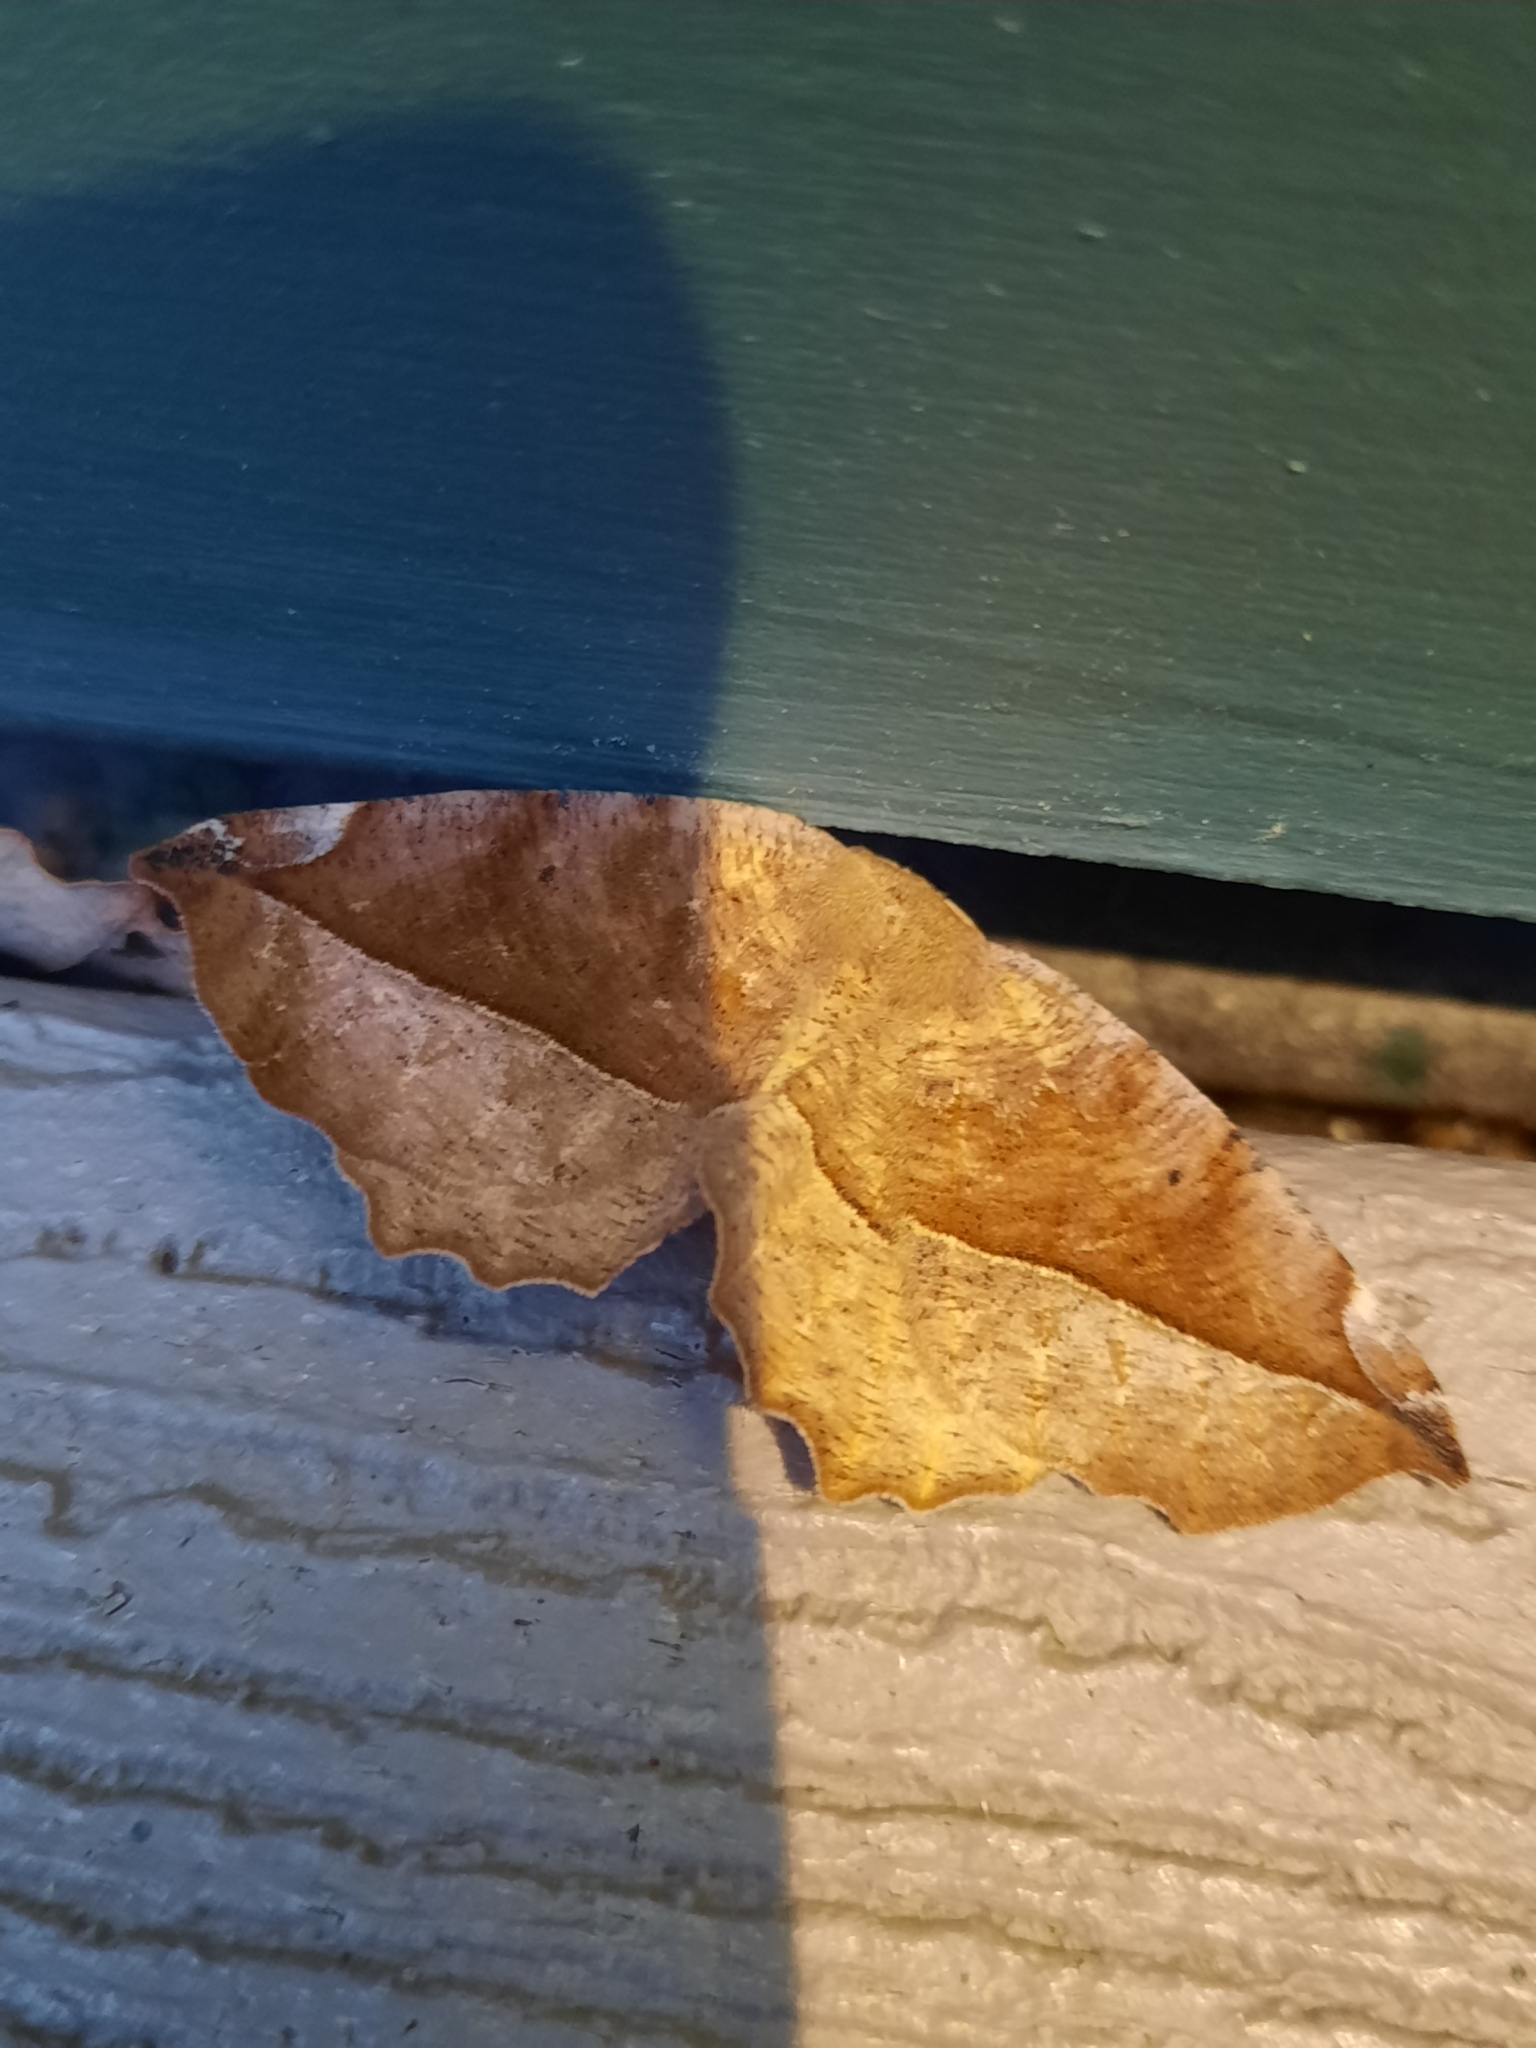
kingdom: Animalia
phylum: Arthropoda
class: Insecta
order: Lepidoptera
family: Geometridae
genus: Eutrapela
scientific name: Eutrapela clemataria
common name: Curved-toothed geometer
